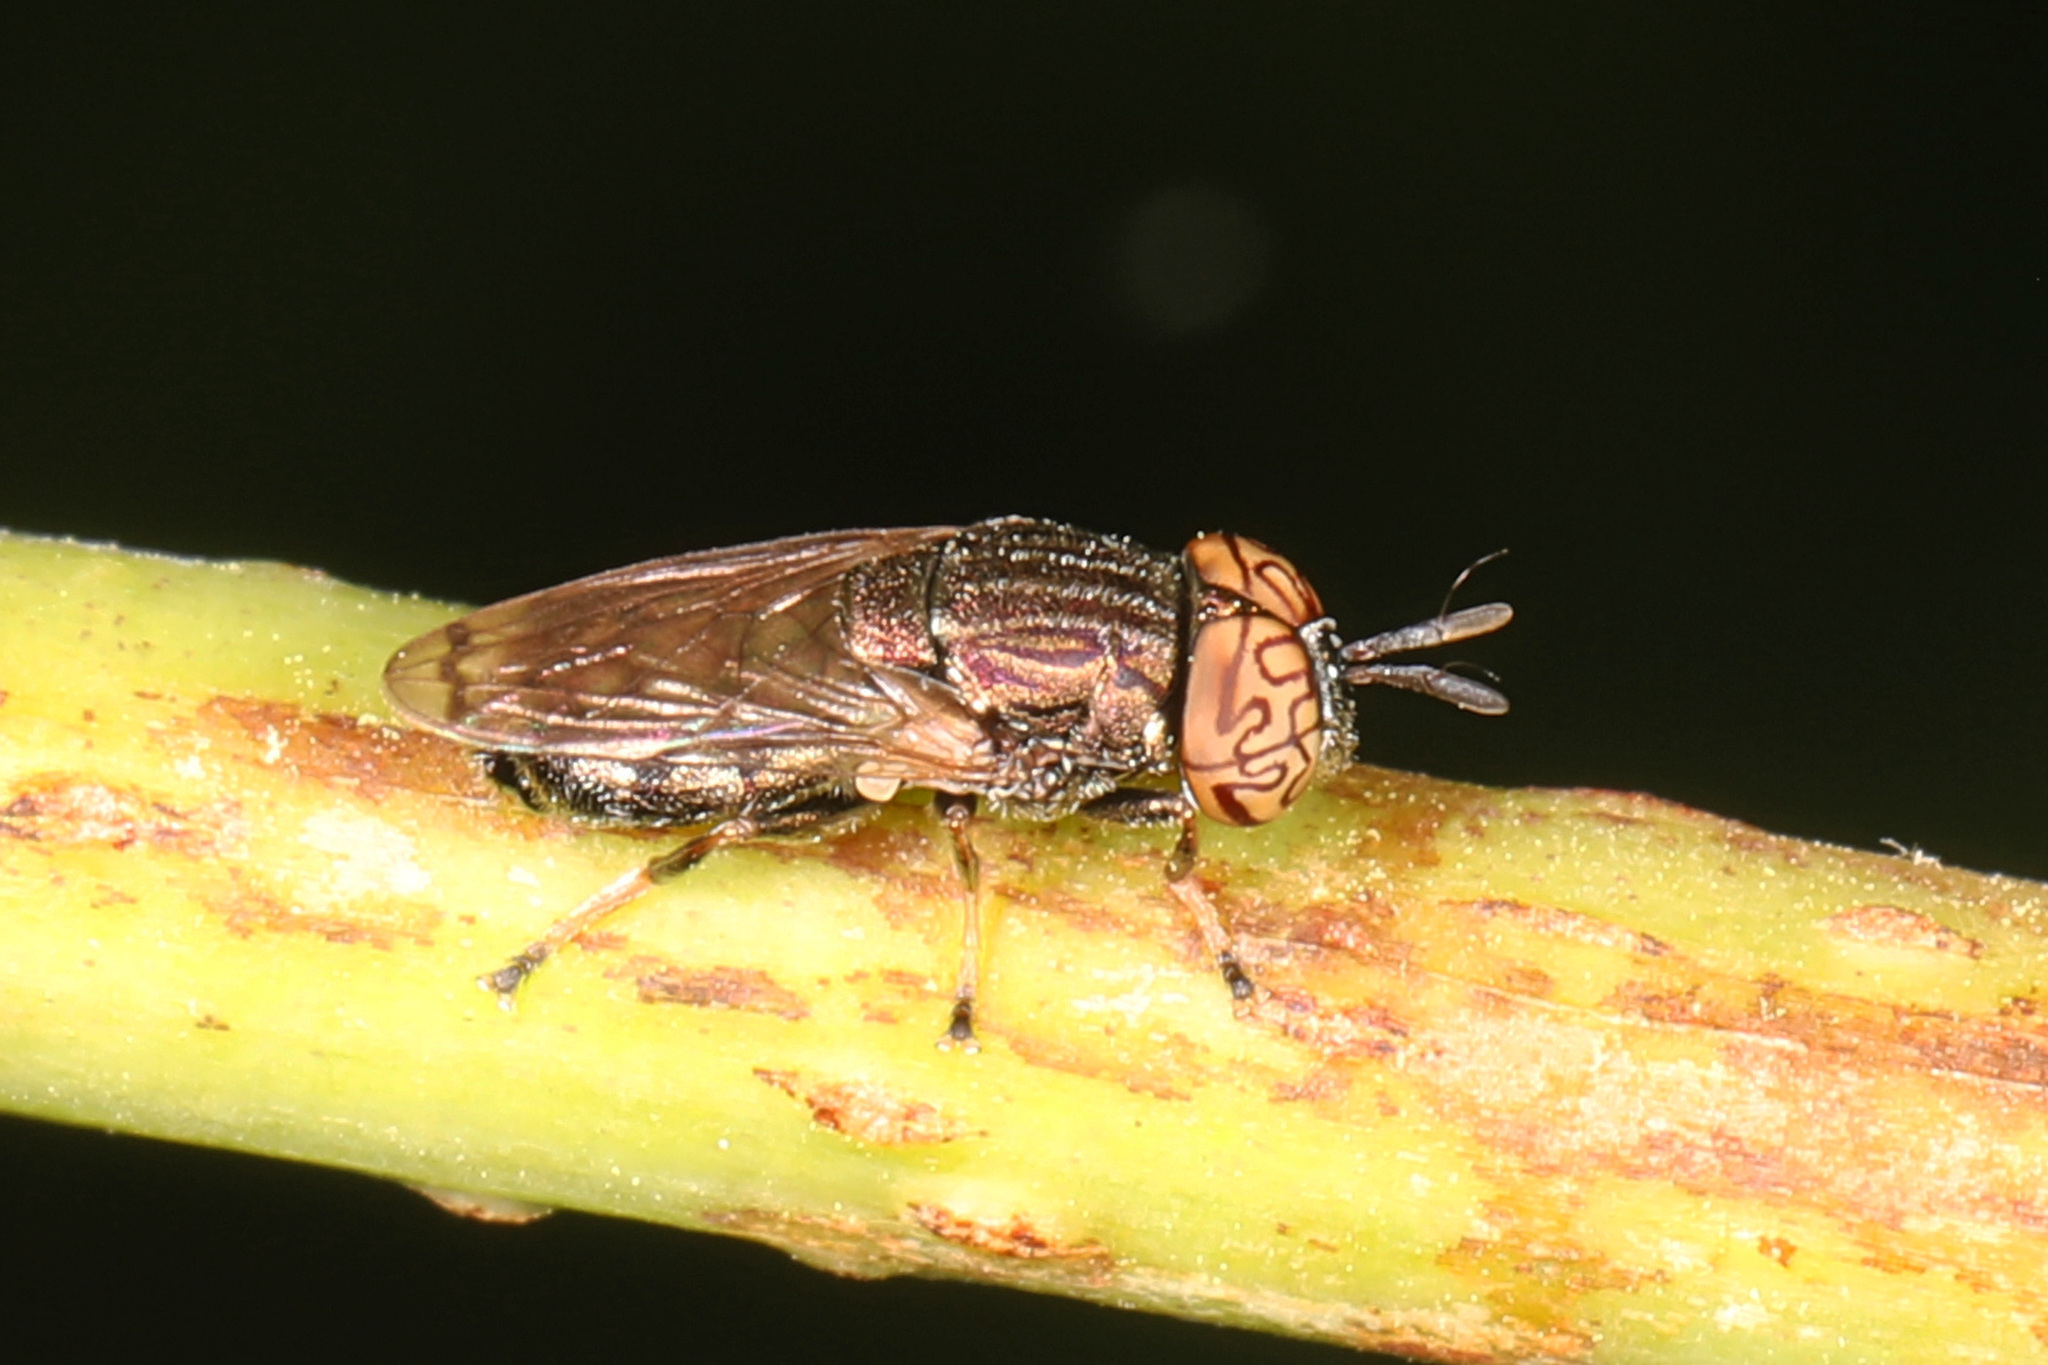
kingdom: Animalia
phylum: Arthropoda
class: Insecta
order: Diptera
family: Syrphidae
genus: Orthonevra
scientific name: Orthonevra nitida
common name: Wavy mucksucker
